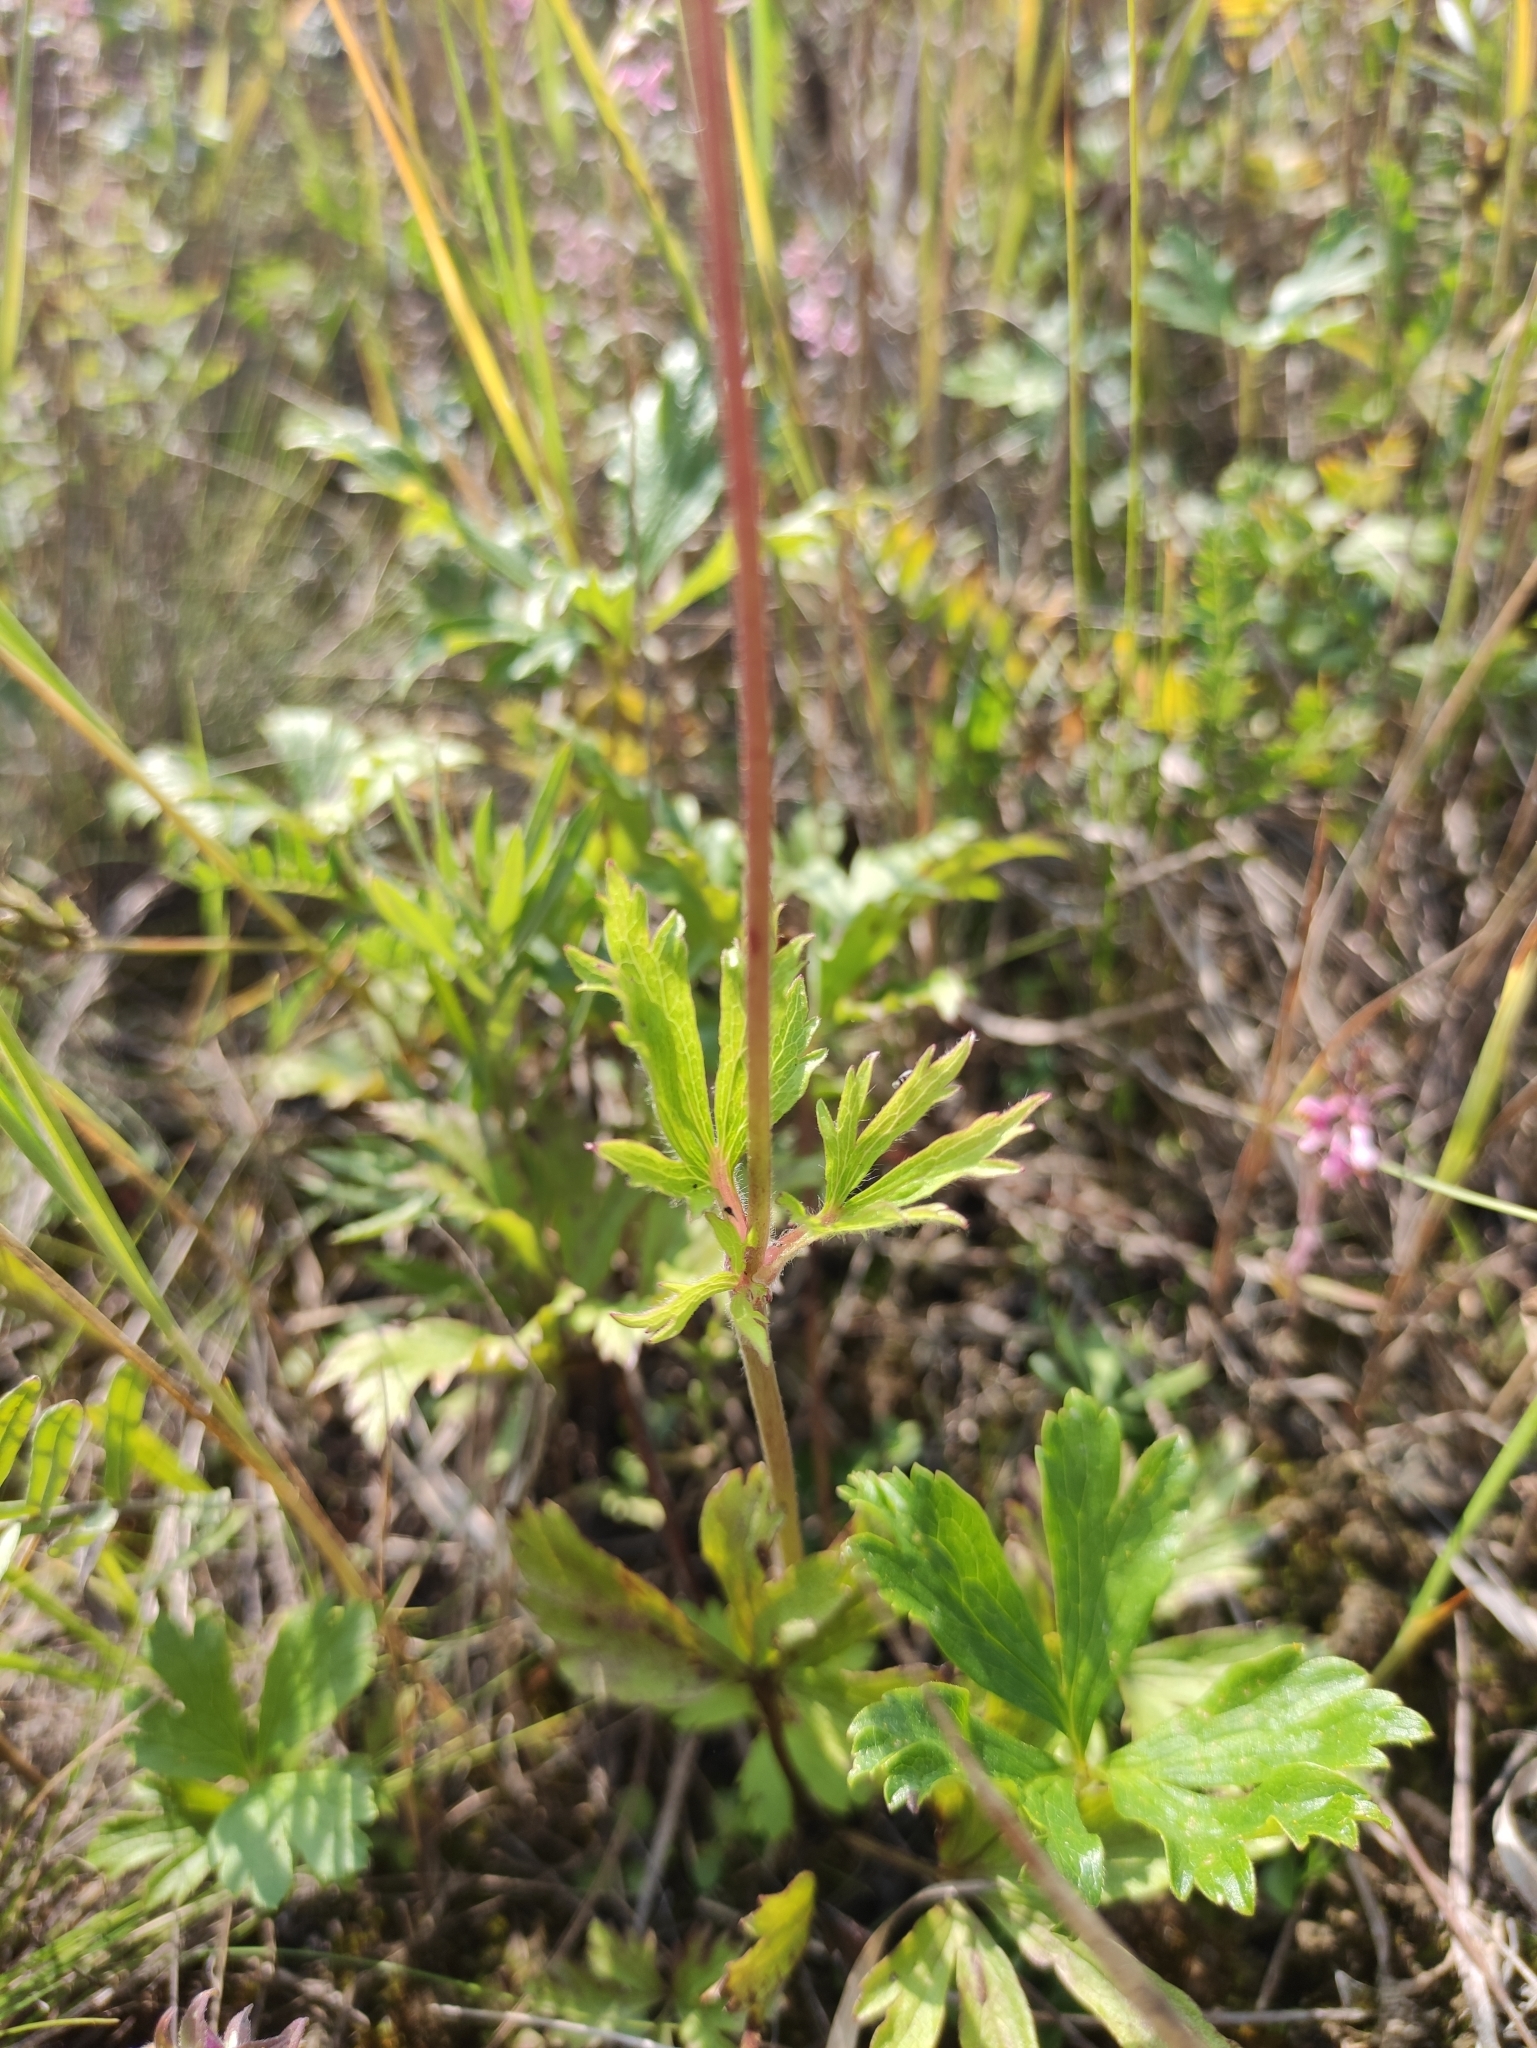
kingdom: Plantae
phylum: Tracheophyta
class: Magnoliopsida
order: Ranunculales
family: Ranunculaceae
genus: Anemone
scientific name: Anemone sylvestris
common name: Snowdrop anemone
